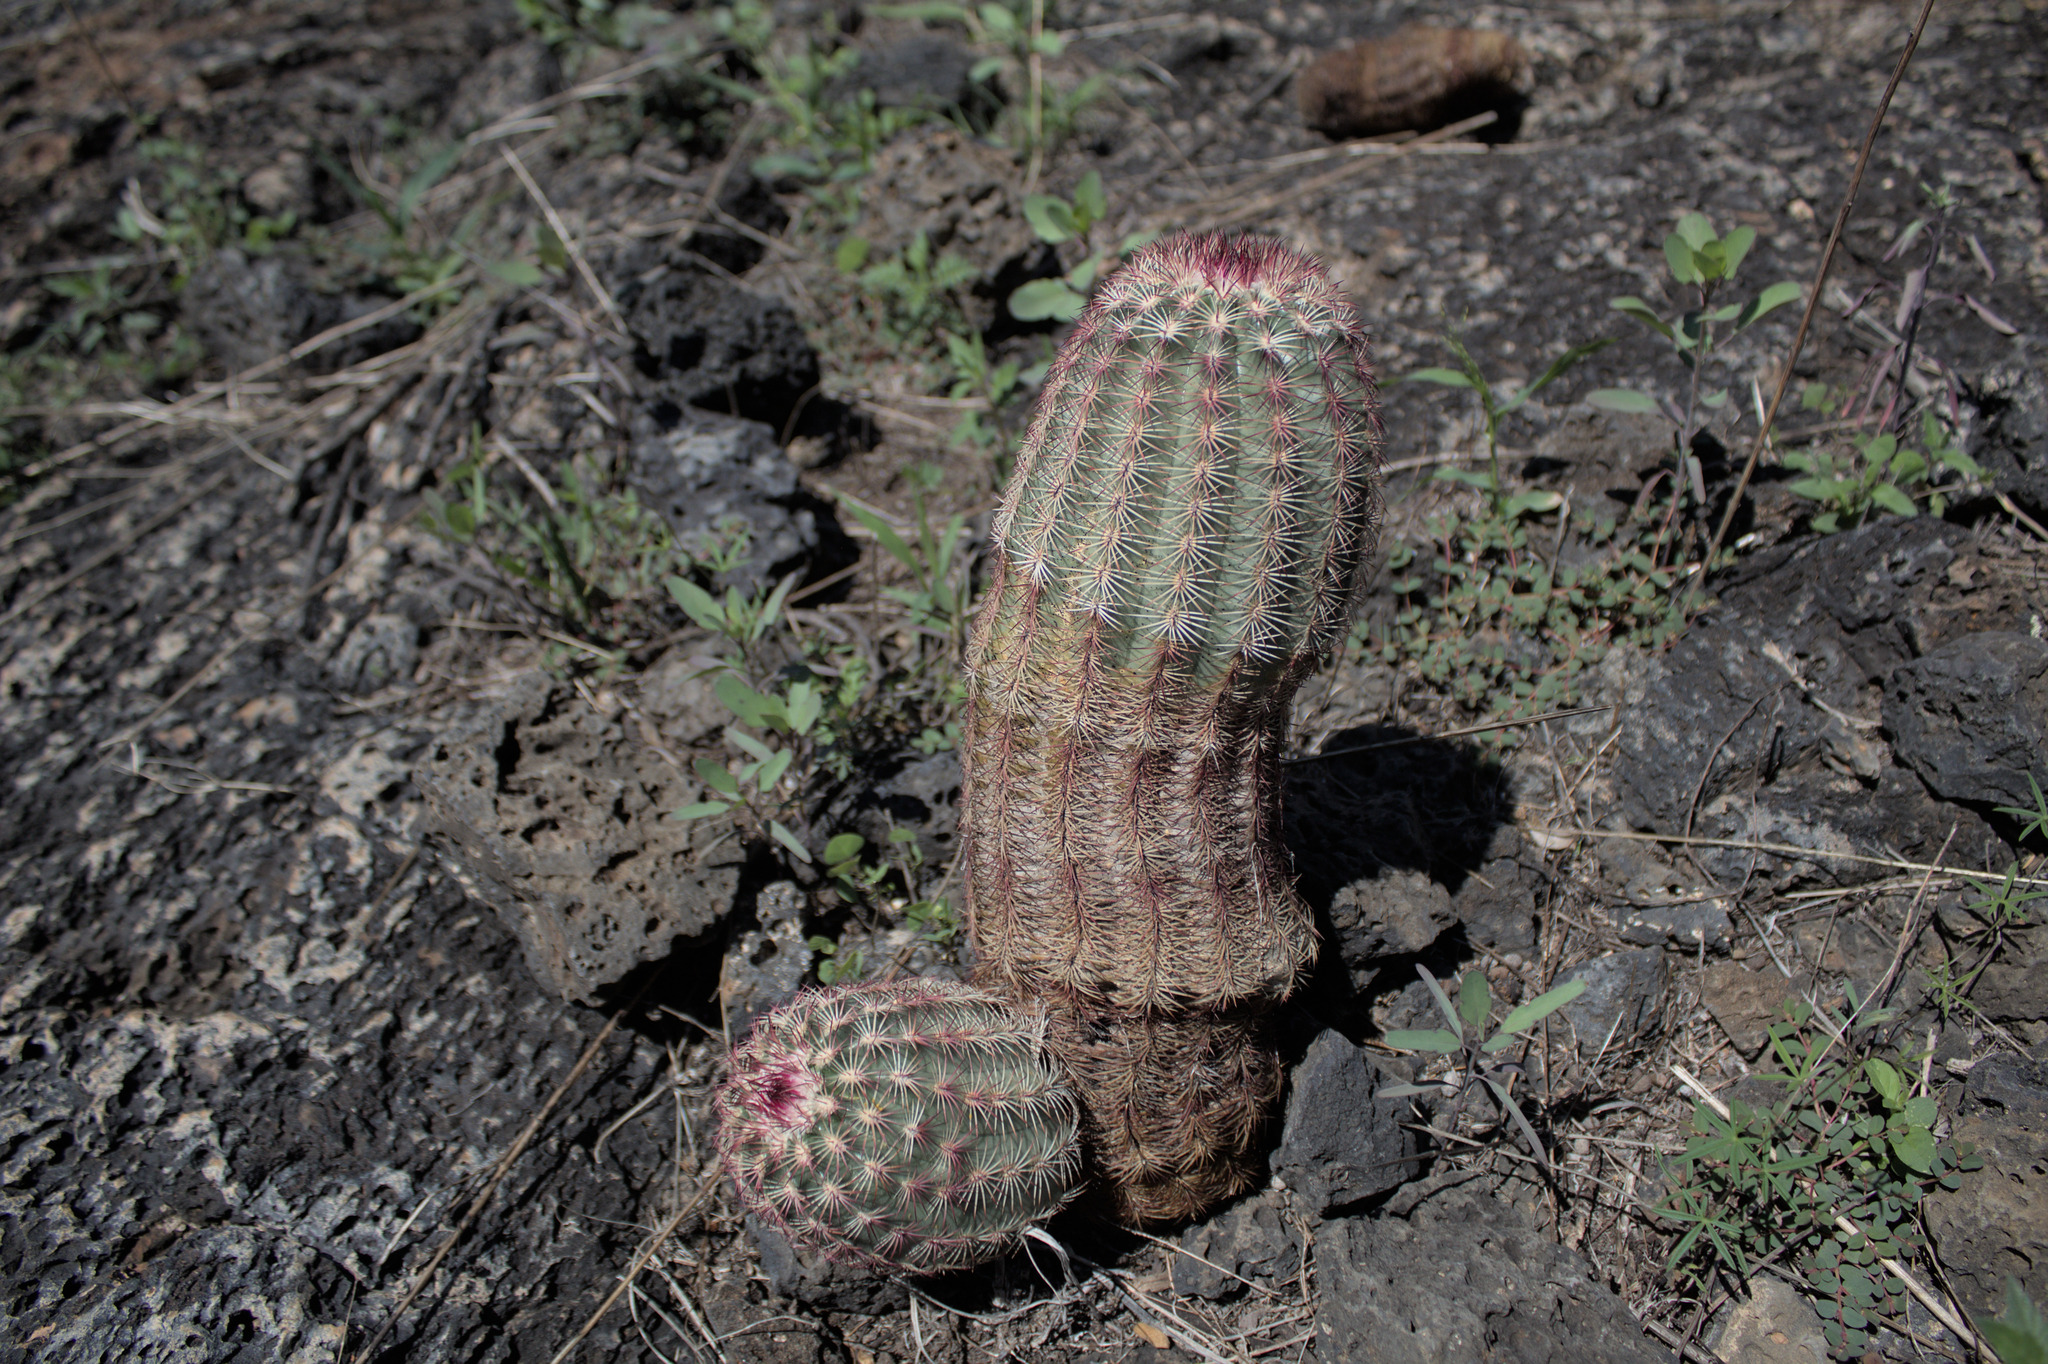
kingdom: Plantae
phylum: Tracheophyta
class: Magnoliopsida
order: Caryophyllales
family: Cactaceae
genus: Echinocereus
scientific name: Echinocereus pectinatus
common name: Rainbow cactus
